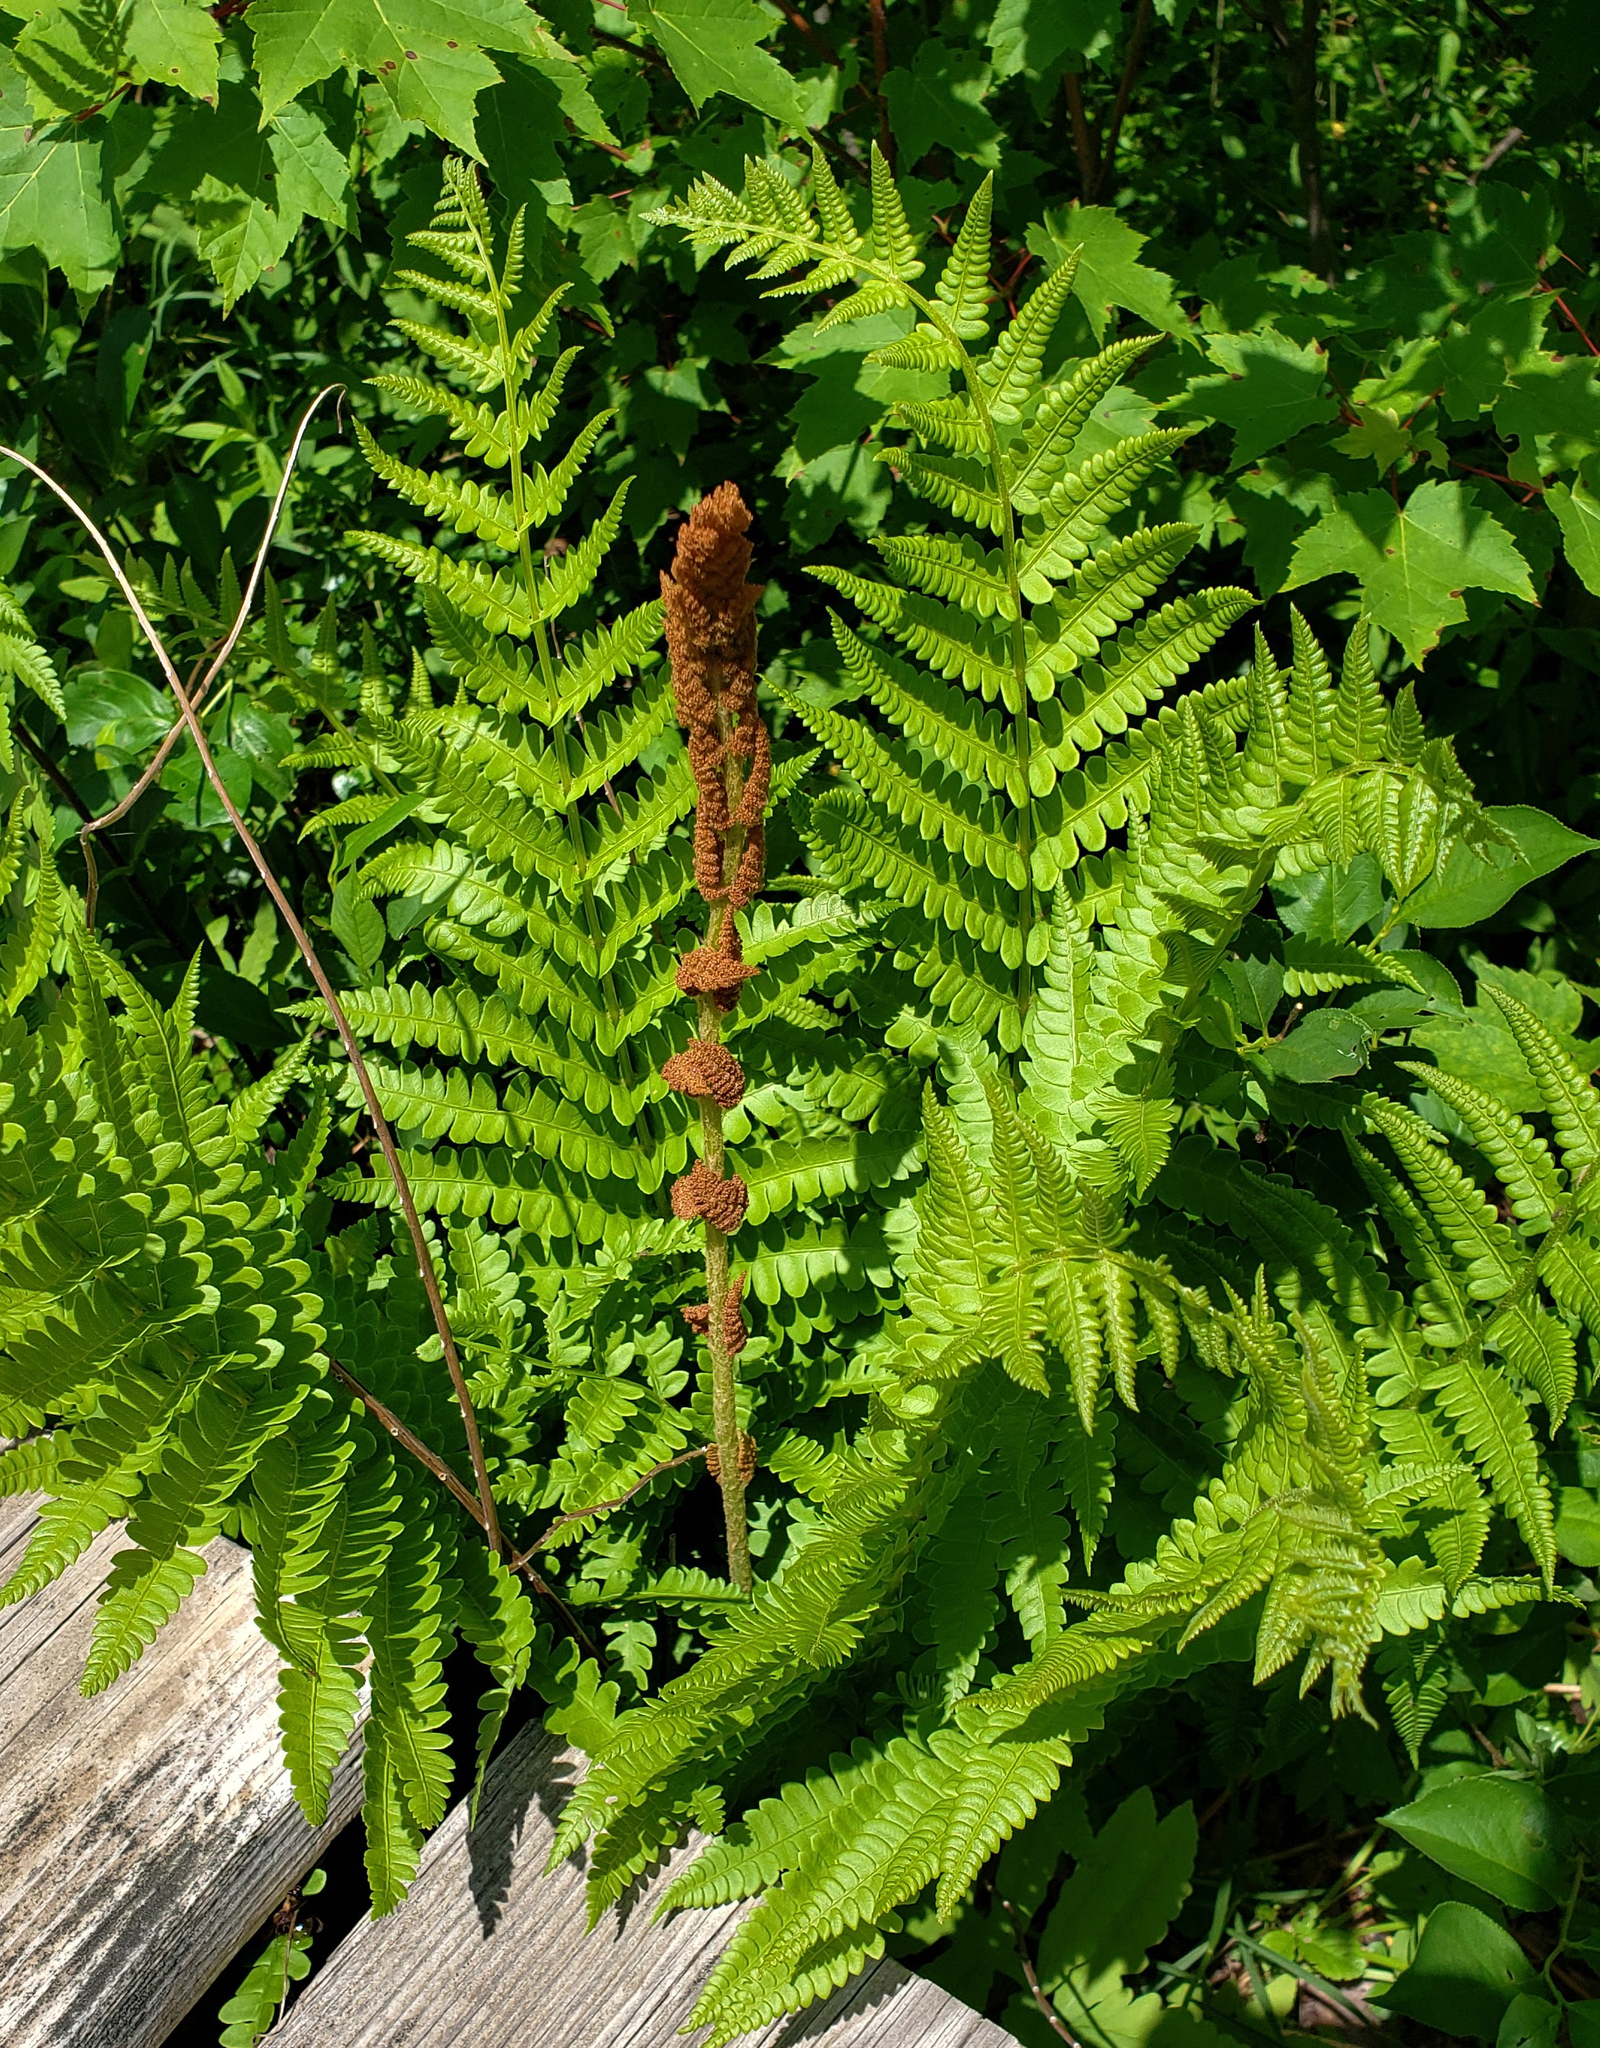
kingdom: Plantae
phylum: Tracheophyta
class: Polypodiopsida
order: Osmundales
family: Osmundaceae
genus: Osmundastrum
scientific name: Osmundastrum cinnamomeum
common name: Cinnamon fern
